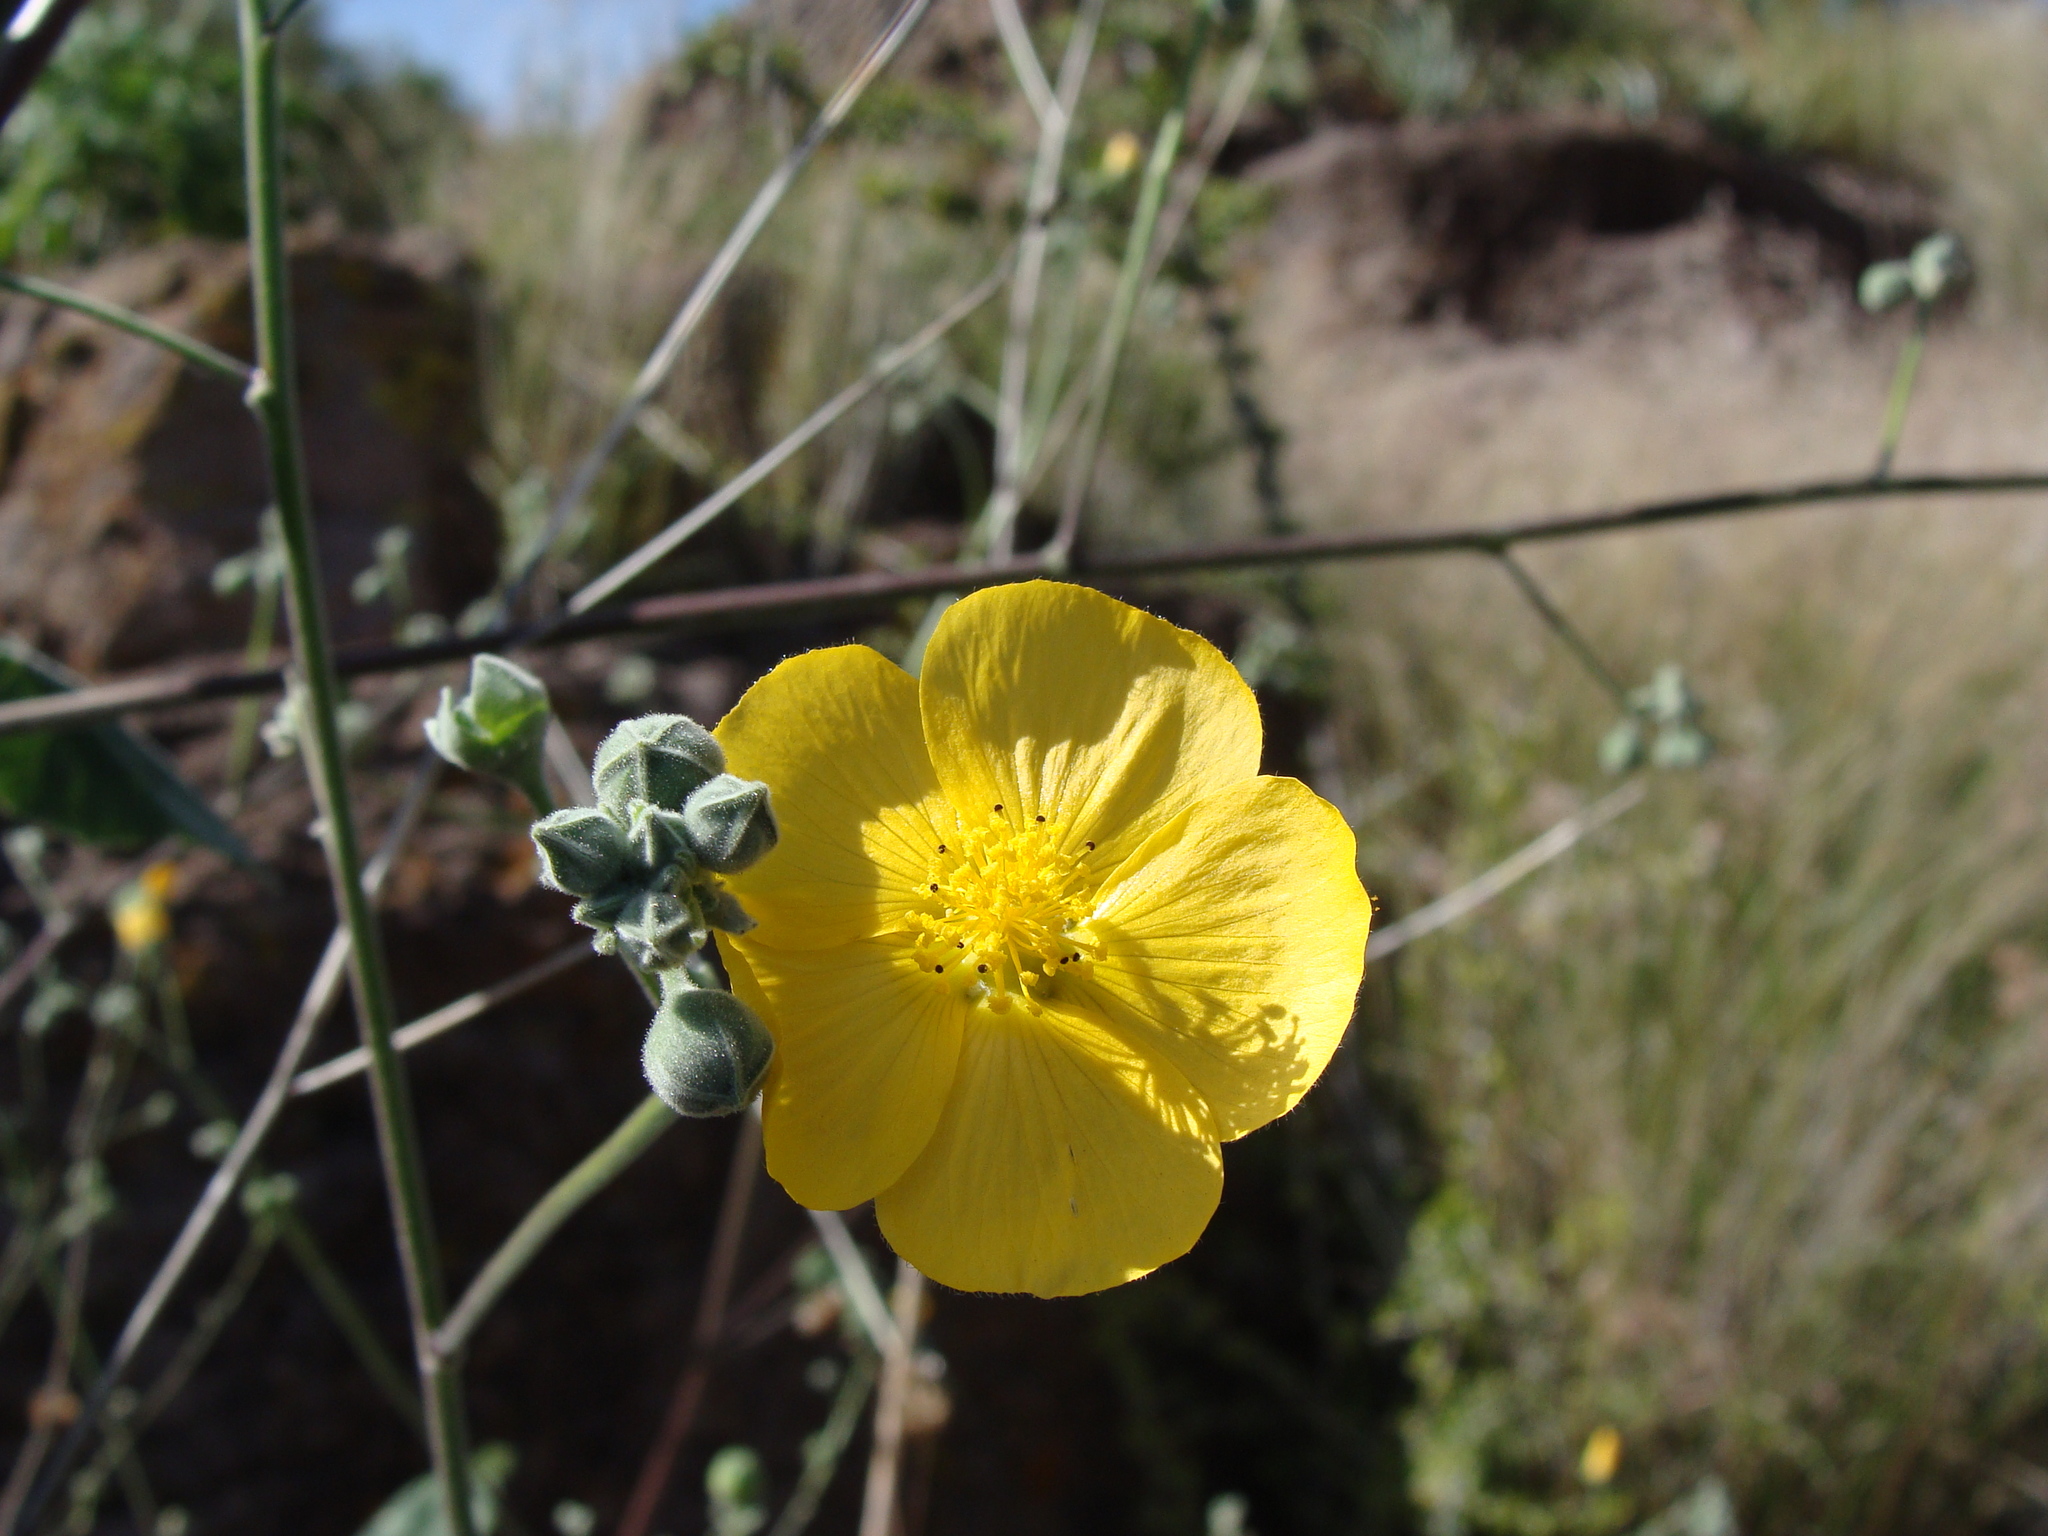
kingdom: Plantae
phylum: Tracheophyta
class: Magnoliopsida
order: Malvales
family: Malvaceae
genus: Abutilon
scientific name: Abutilon reventum
